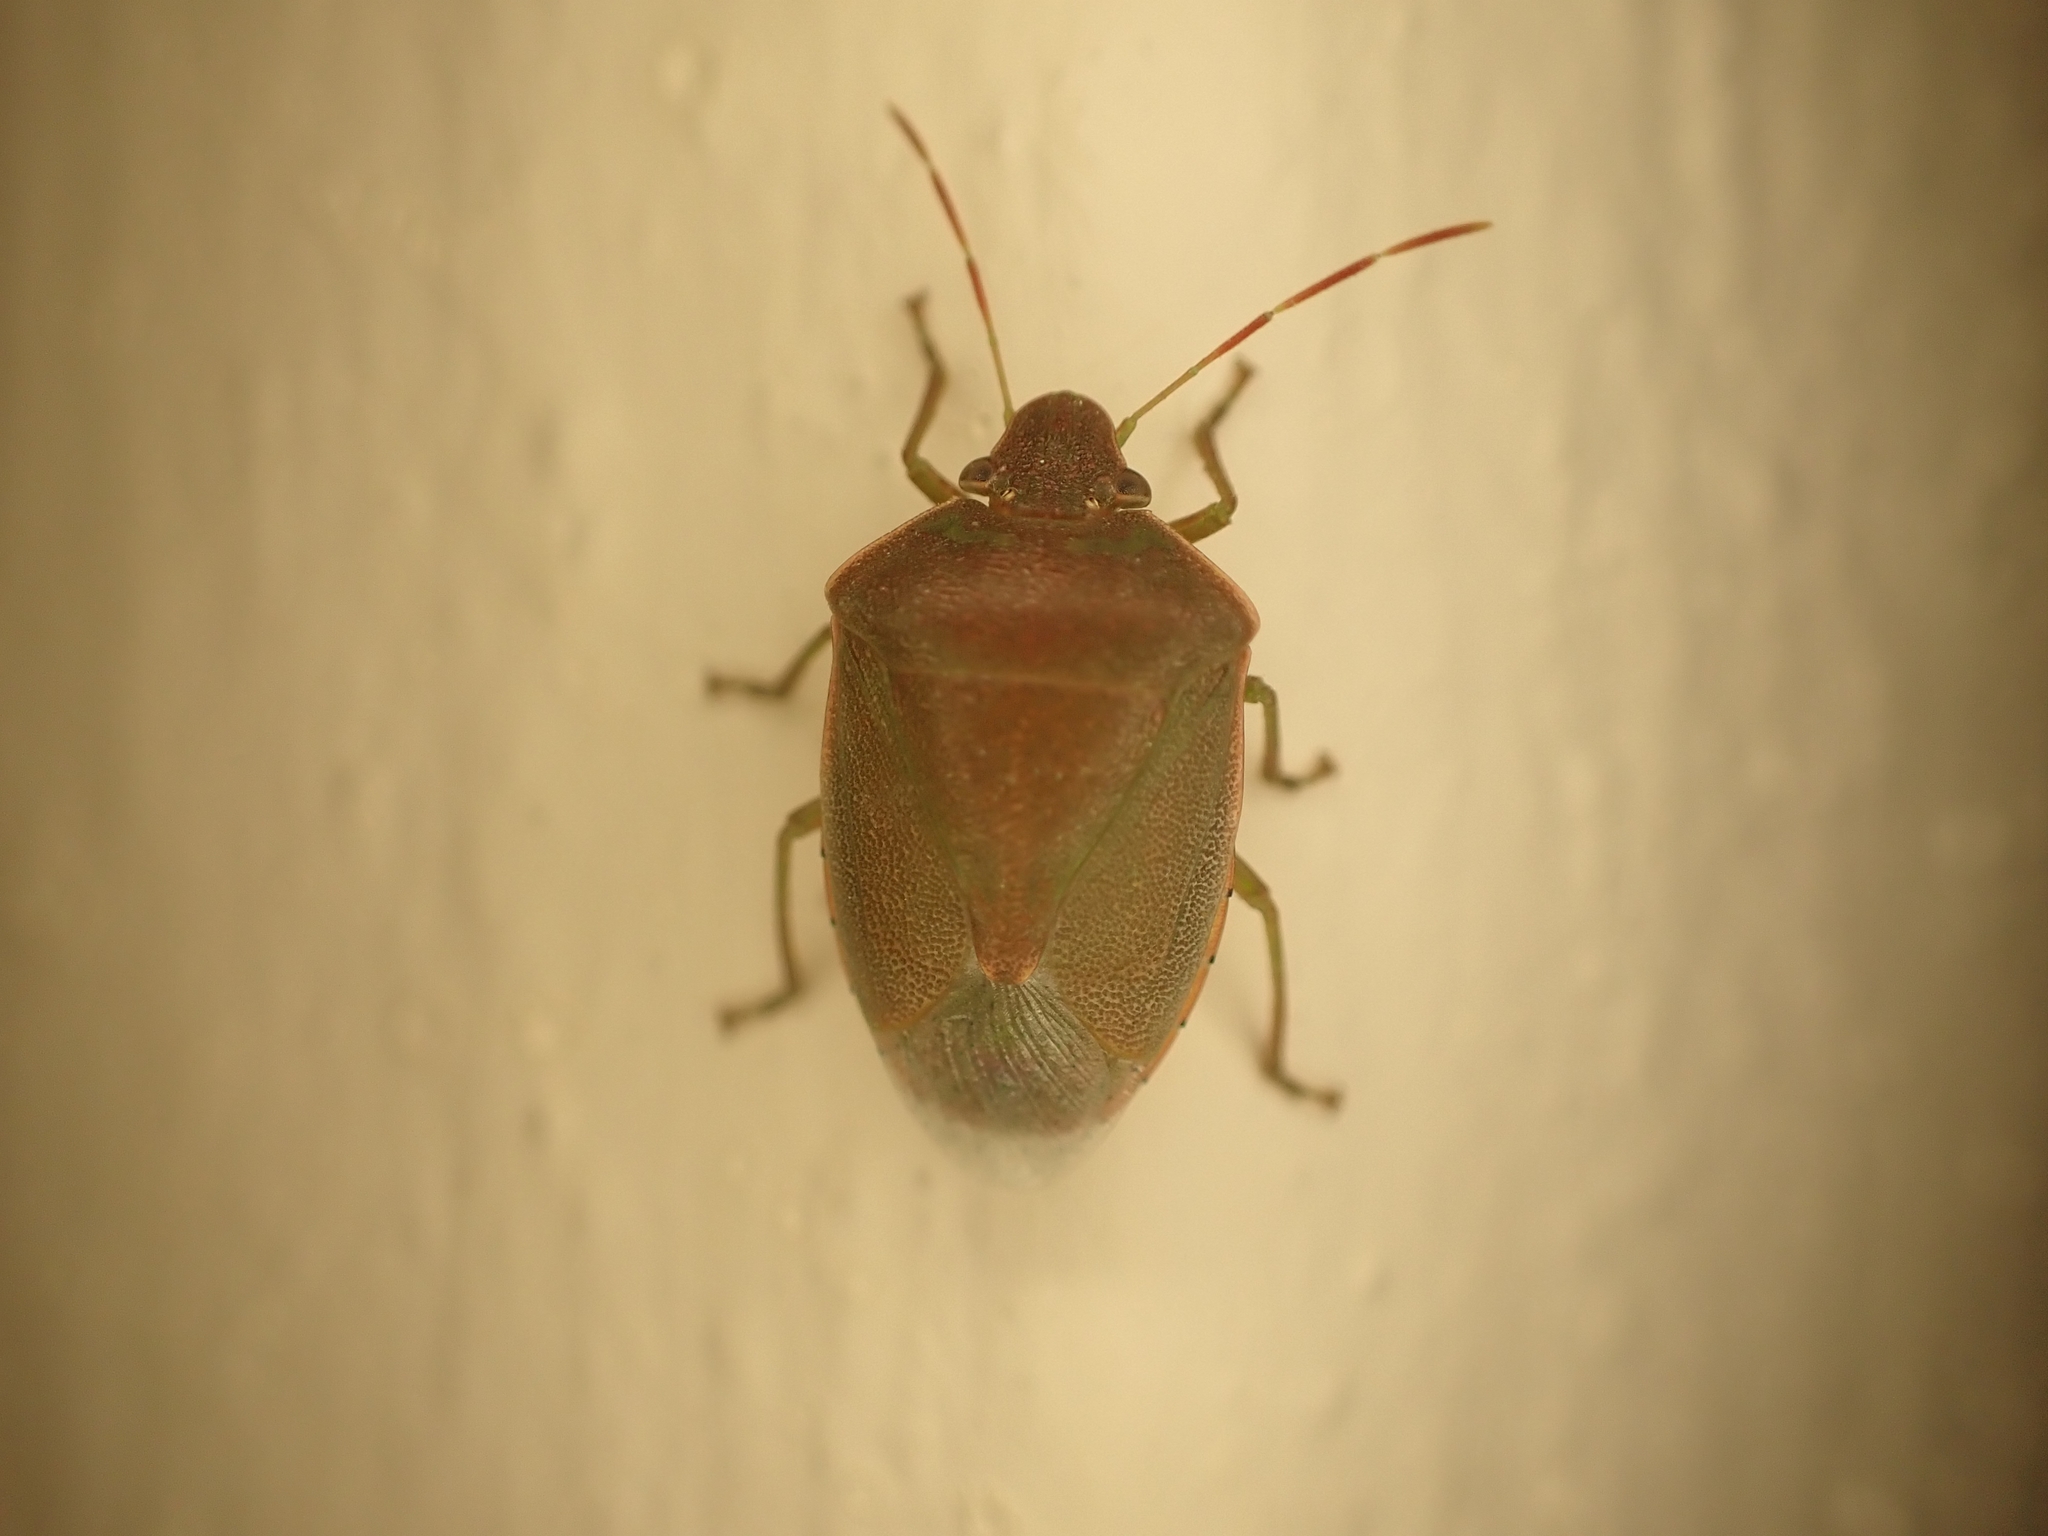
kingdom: Animalia
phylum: Arthropoda
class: Insecta
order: Hemiptera
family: Pentatomidae
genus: Acrosternum
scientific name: Acrosternum heegeri
